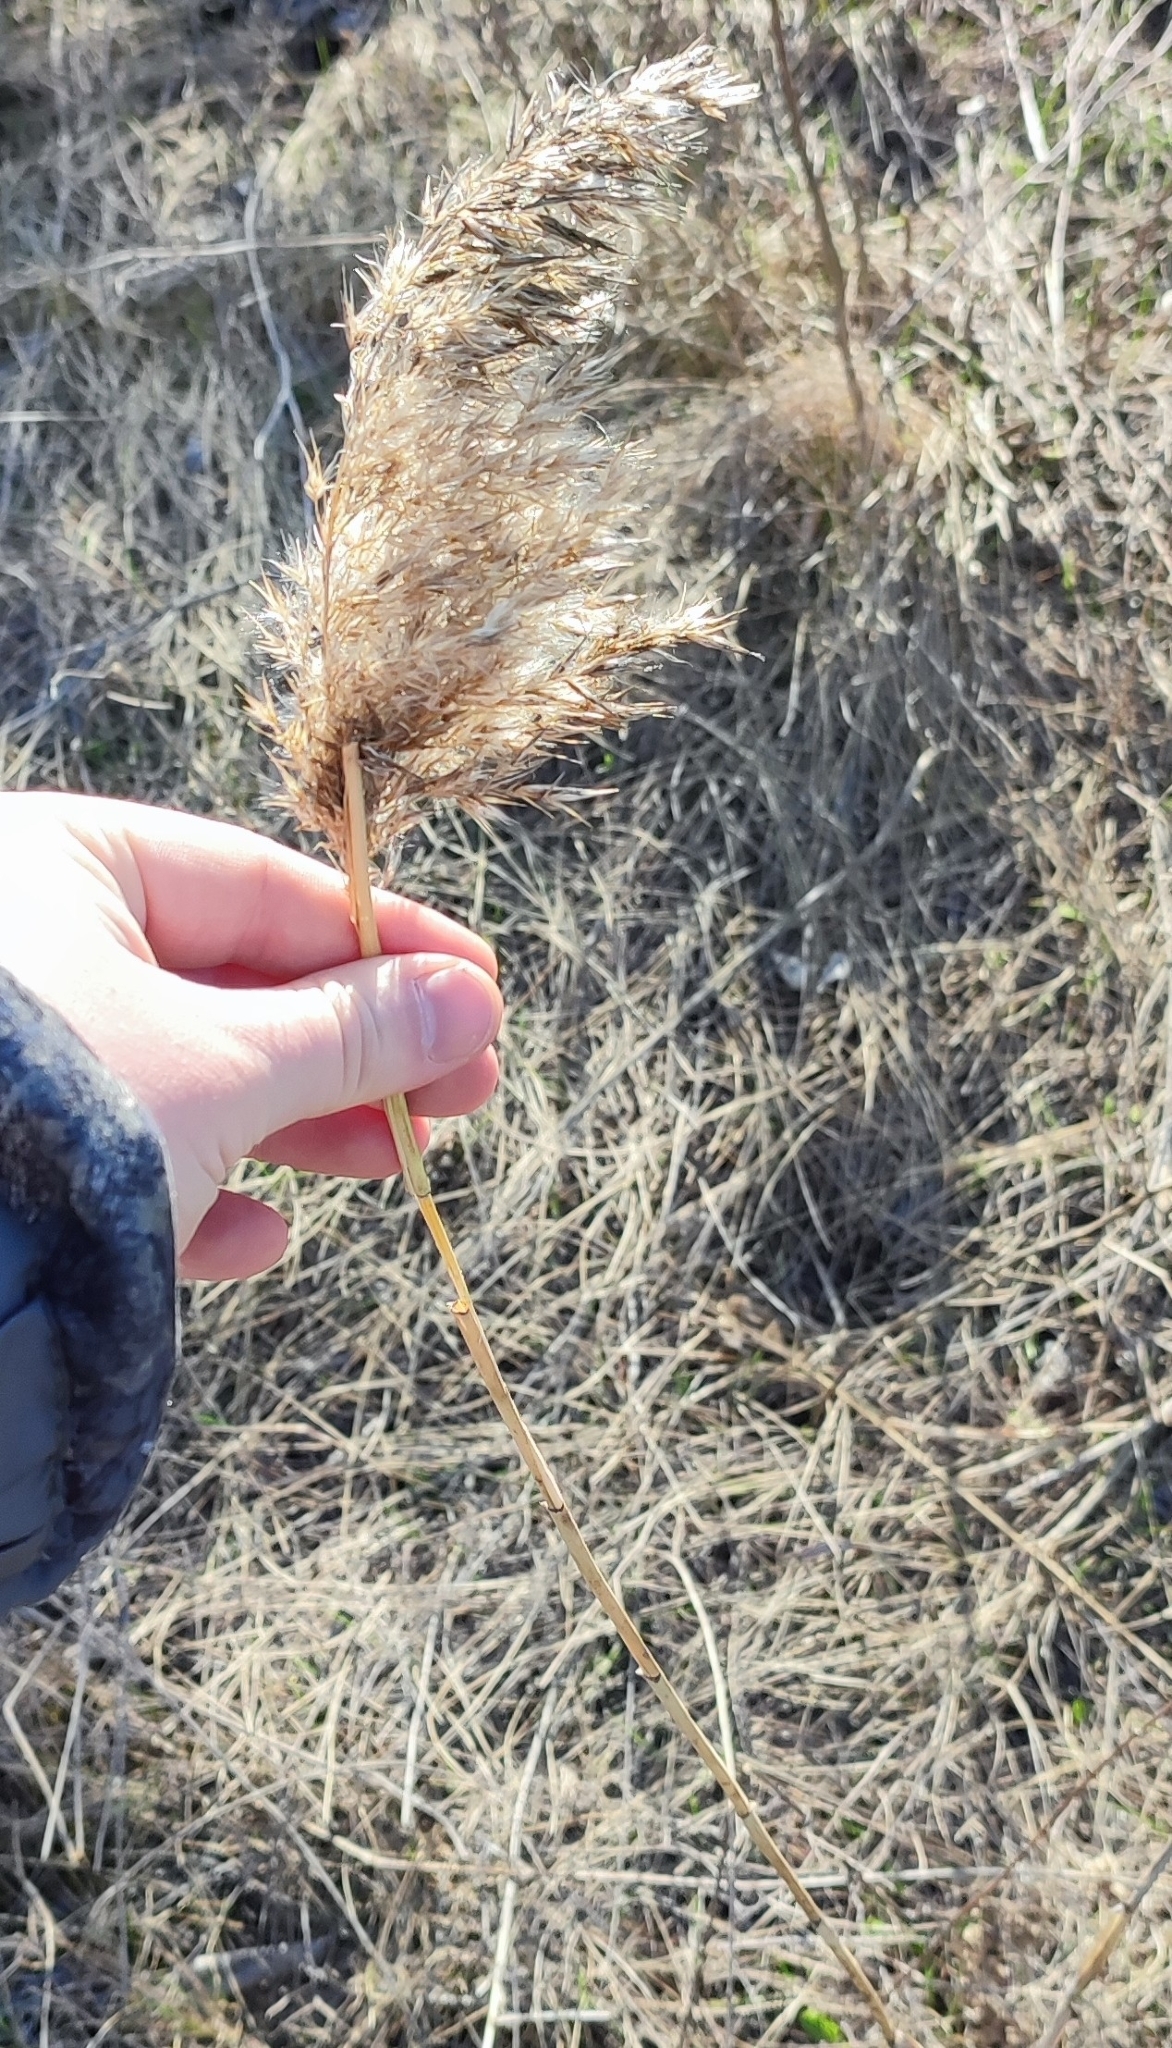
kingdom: Plantae
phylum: Tracheophyta
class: Liliopsida
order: Poales
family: Poaceae
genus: Phragmites
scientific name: Phragmites australis
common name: Common reed
